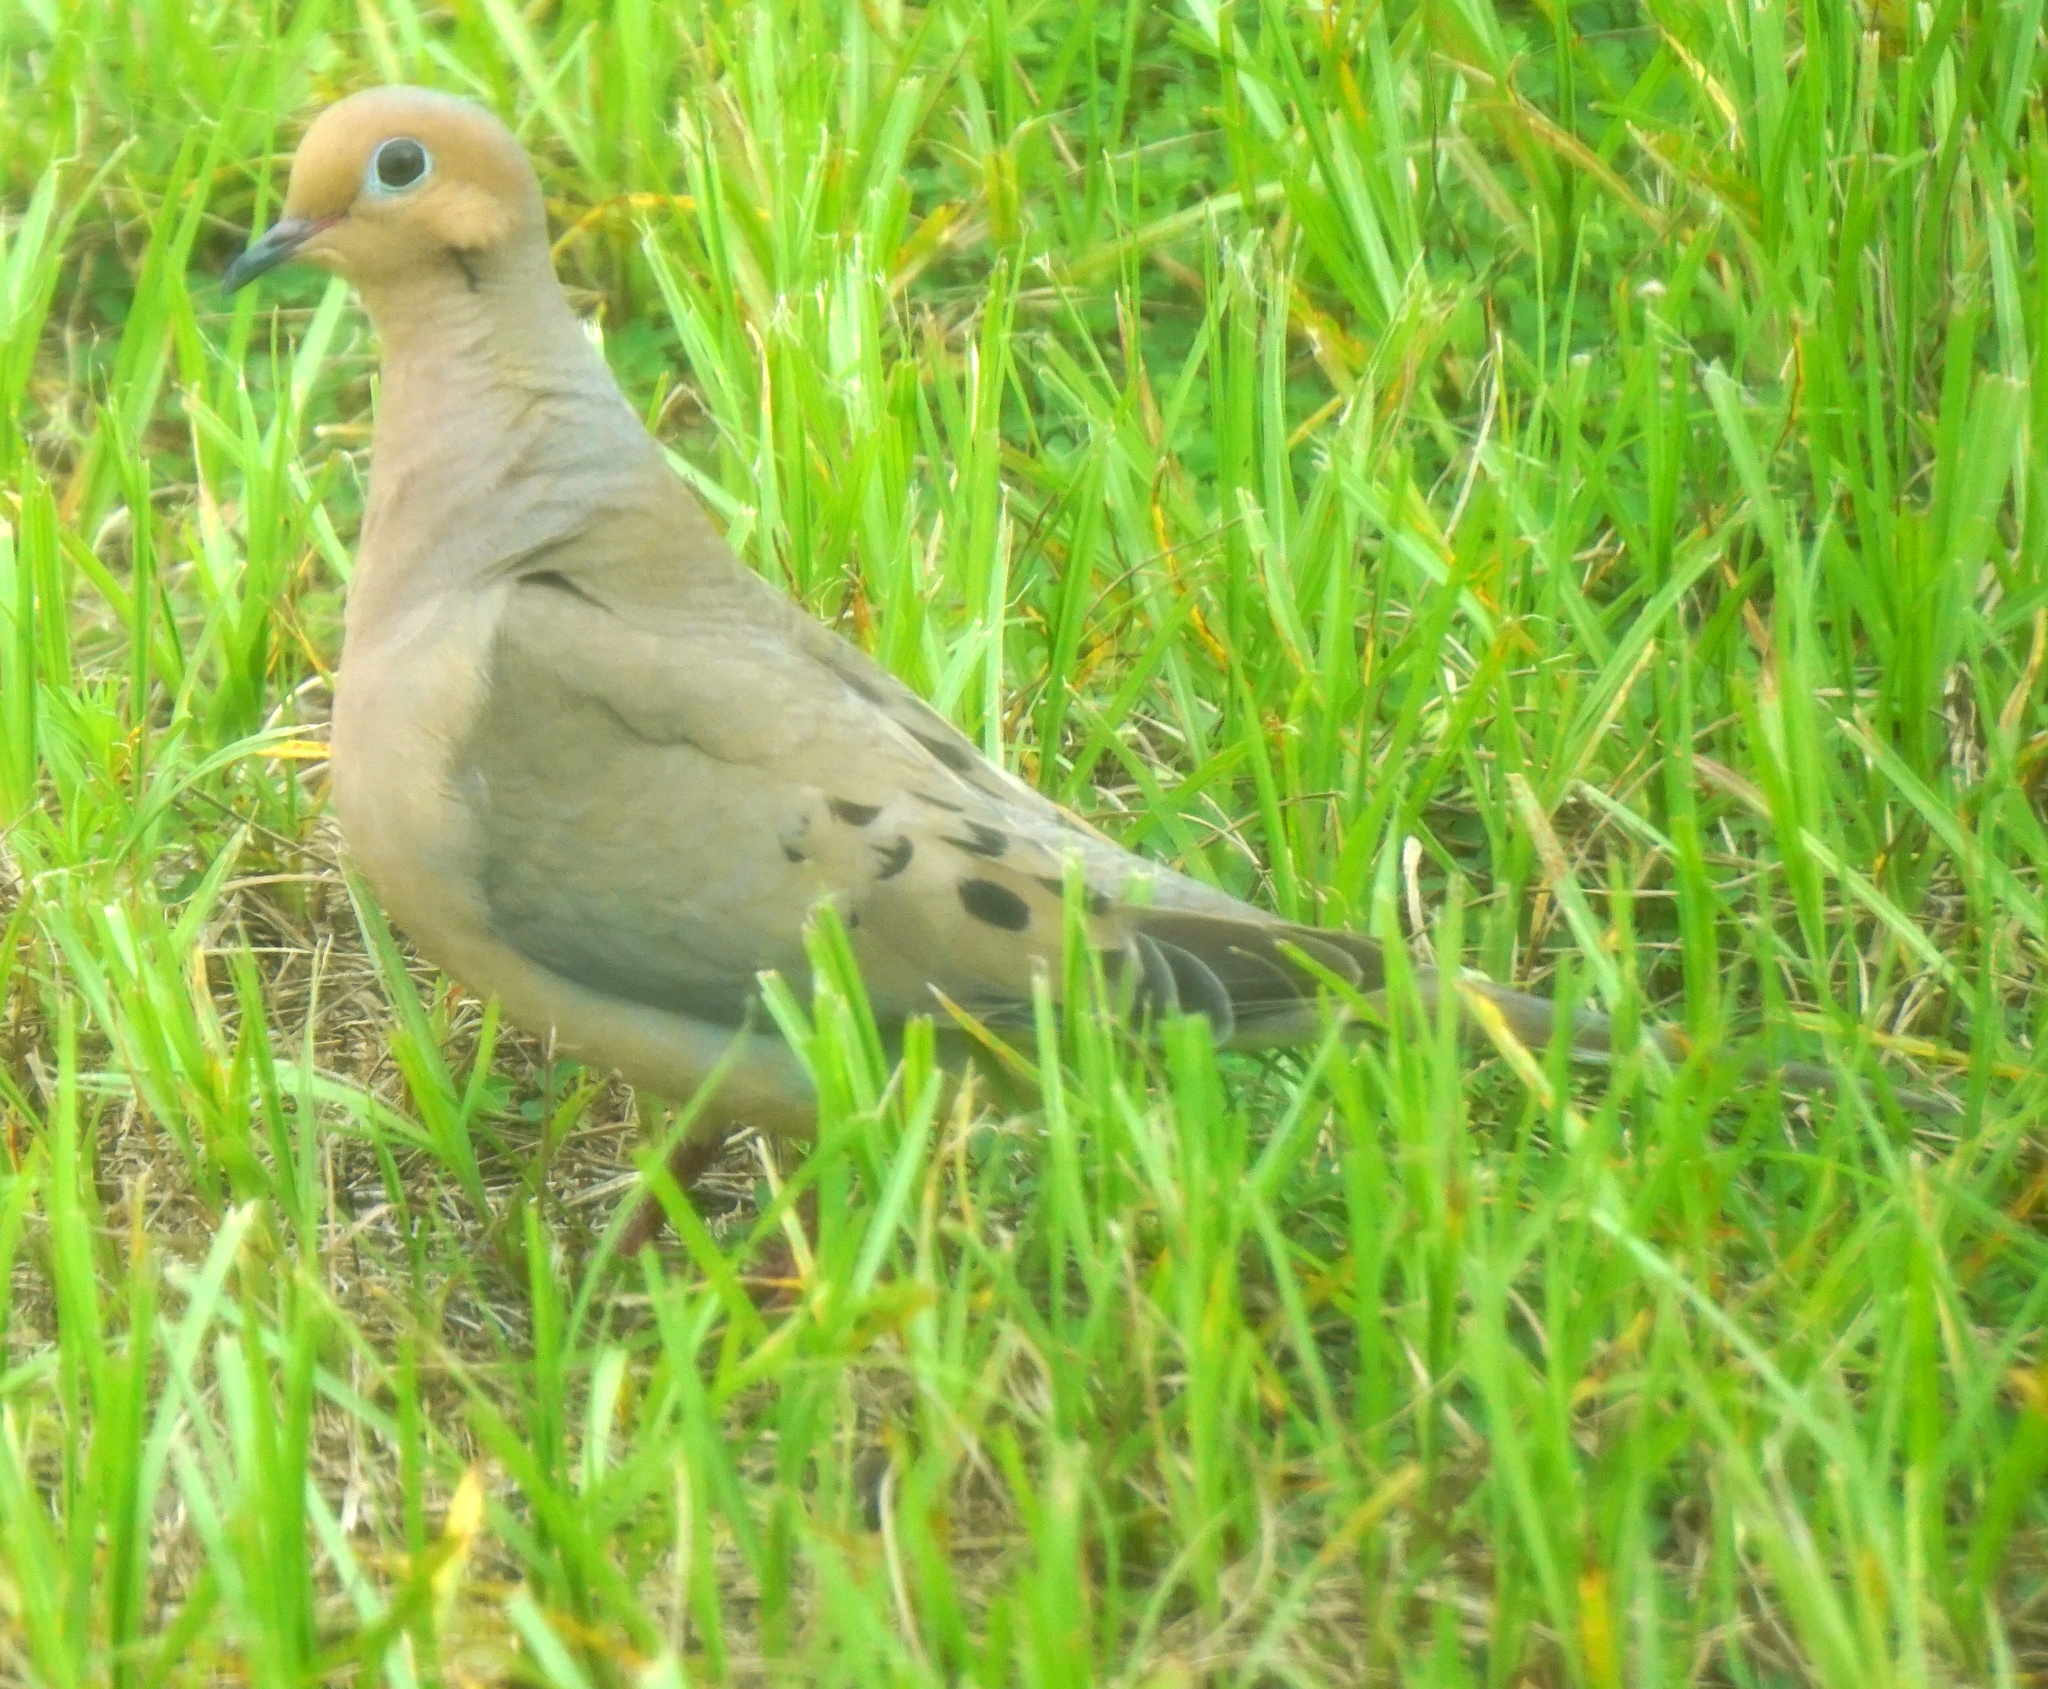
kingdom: Animalia
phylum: Chordata
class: Aves
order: Columbiformes
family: Columbidae
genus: Zenaida
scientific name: Zenaida macroura
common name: Mourning dove
